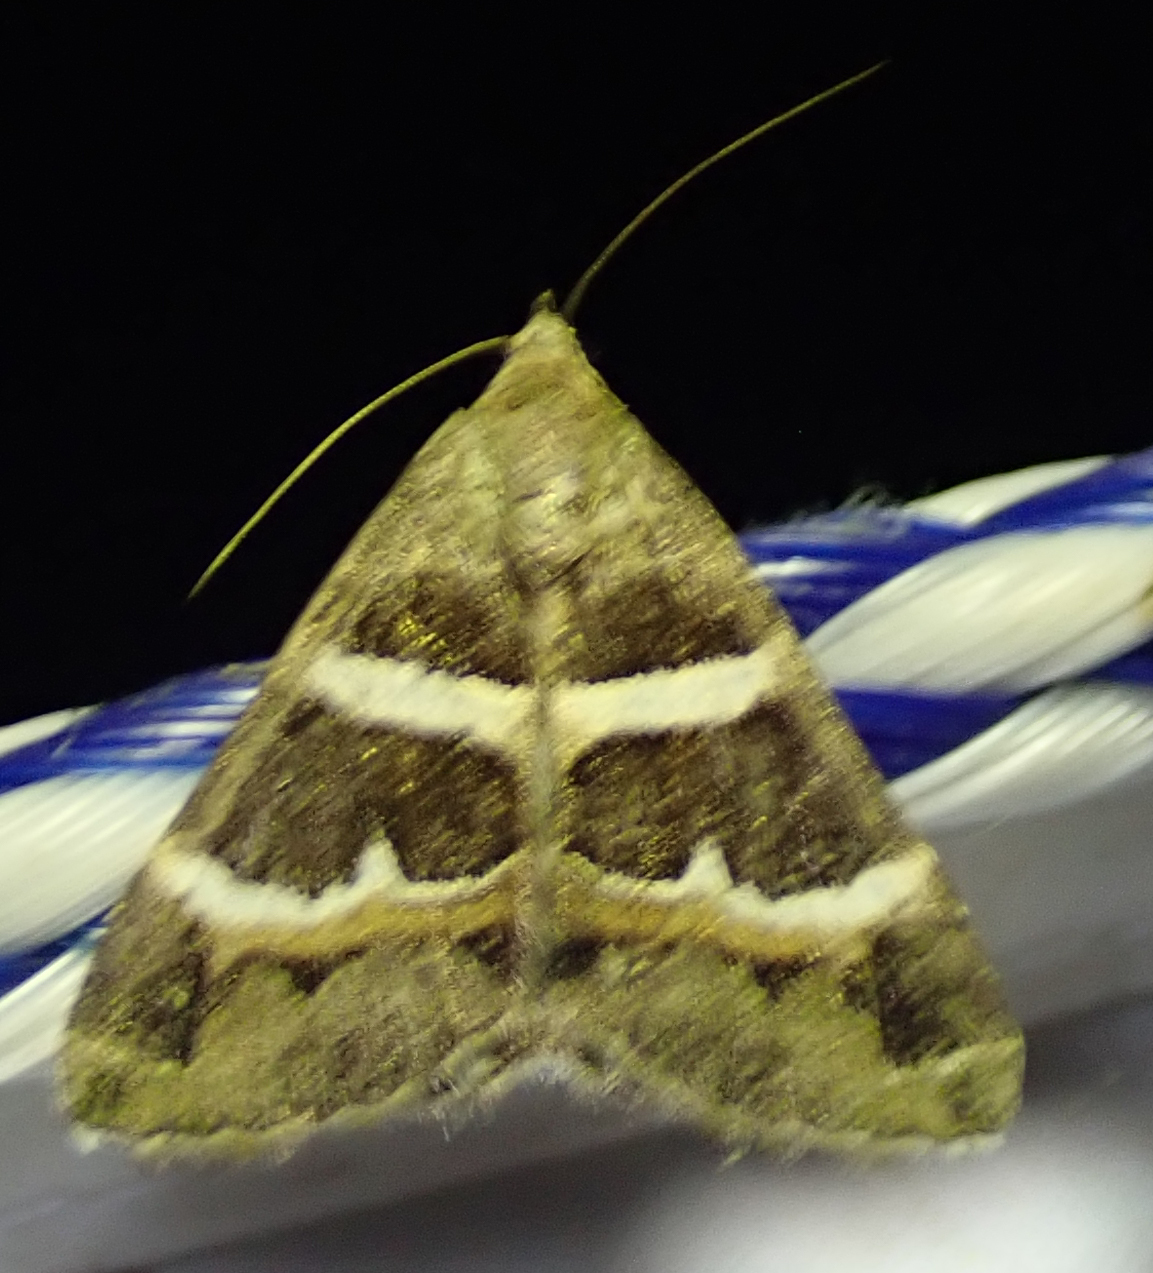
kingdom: Animalia
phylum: Arthropoda
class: Insecta
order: Lepidoptera
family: Erebidae
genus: Grammodes
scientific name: Grammodes stolida
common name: Geometrician
